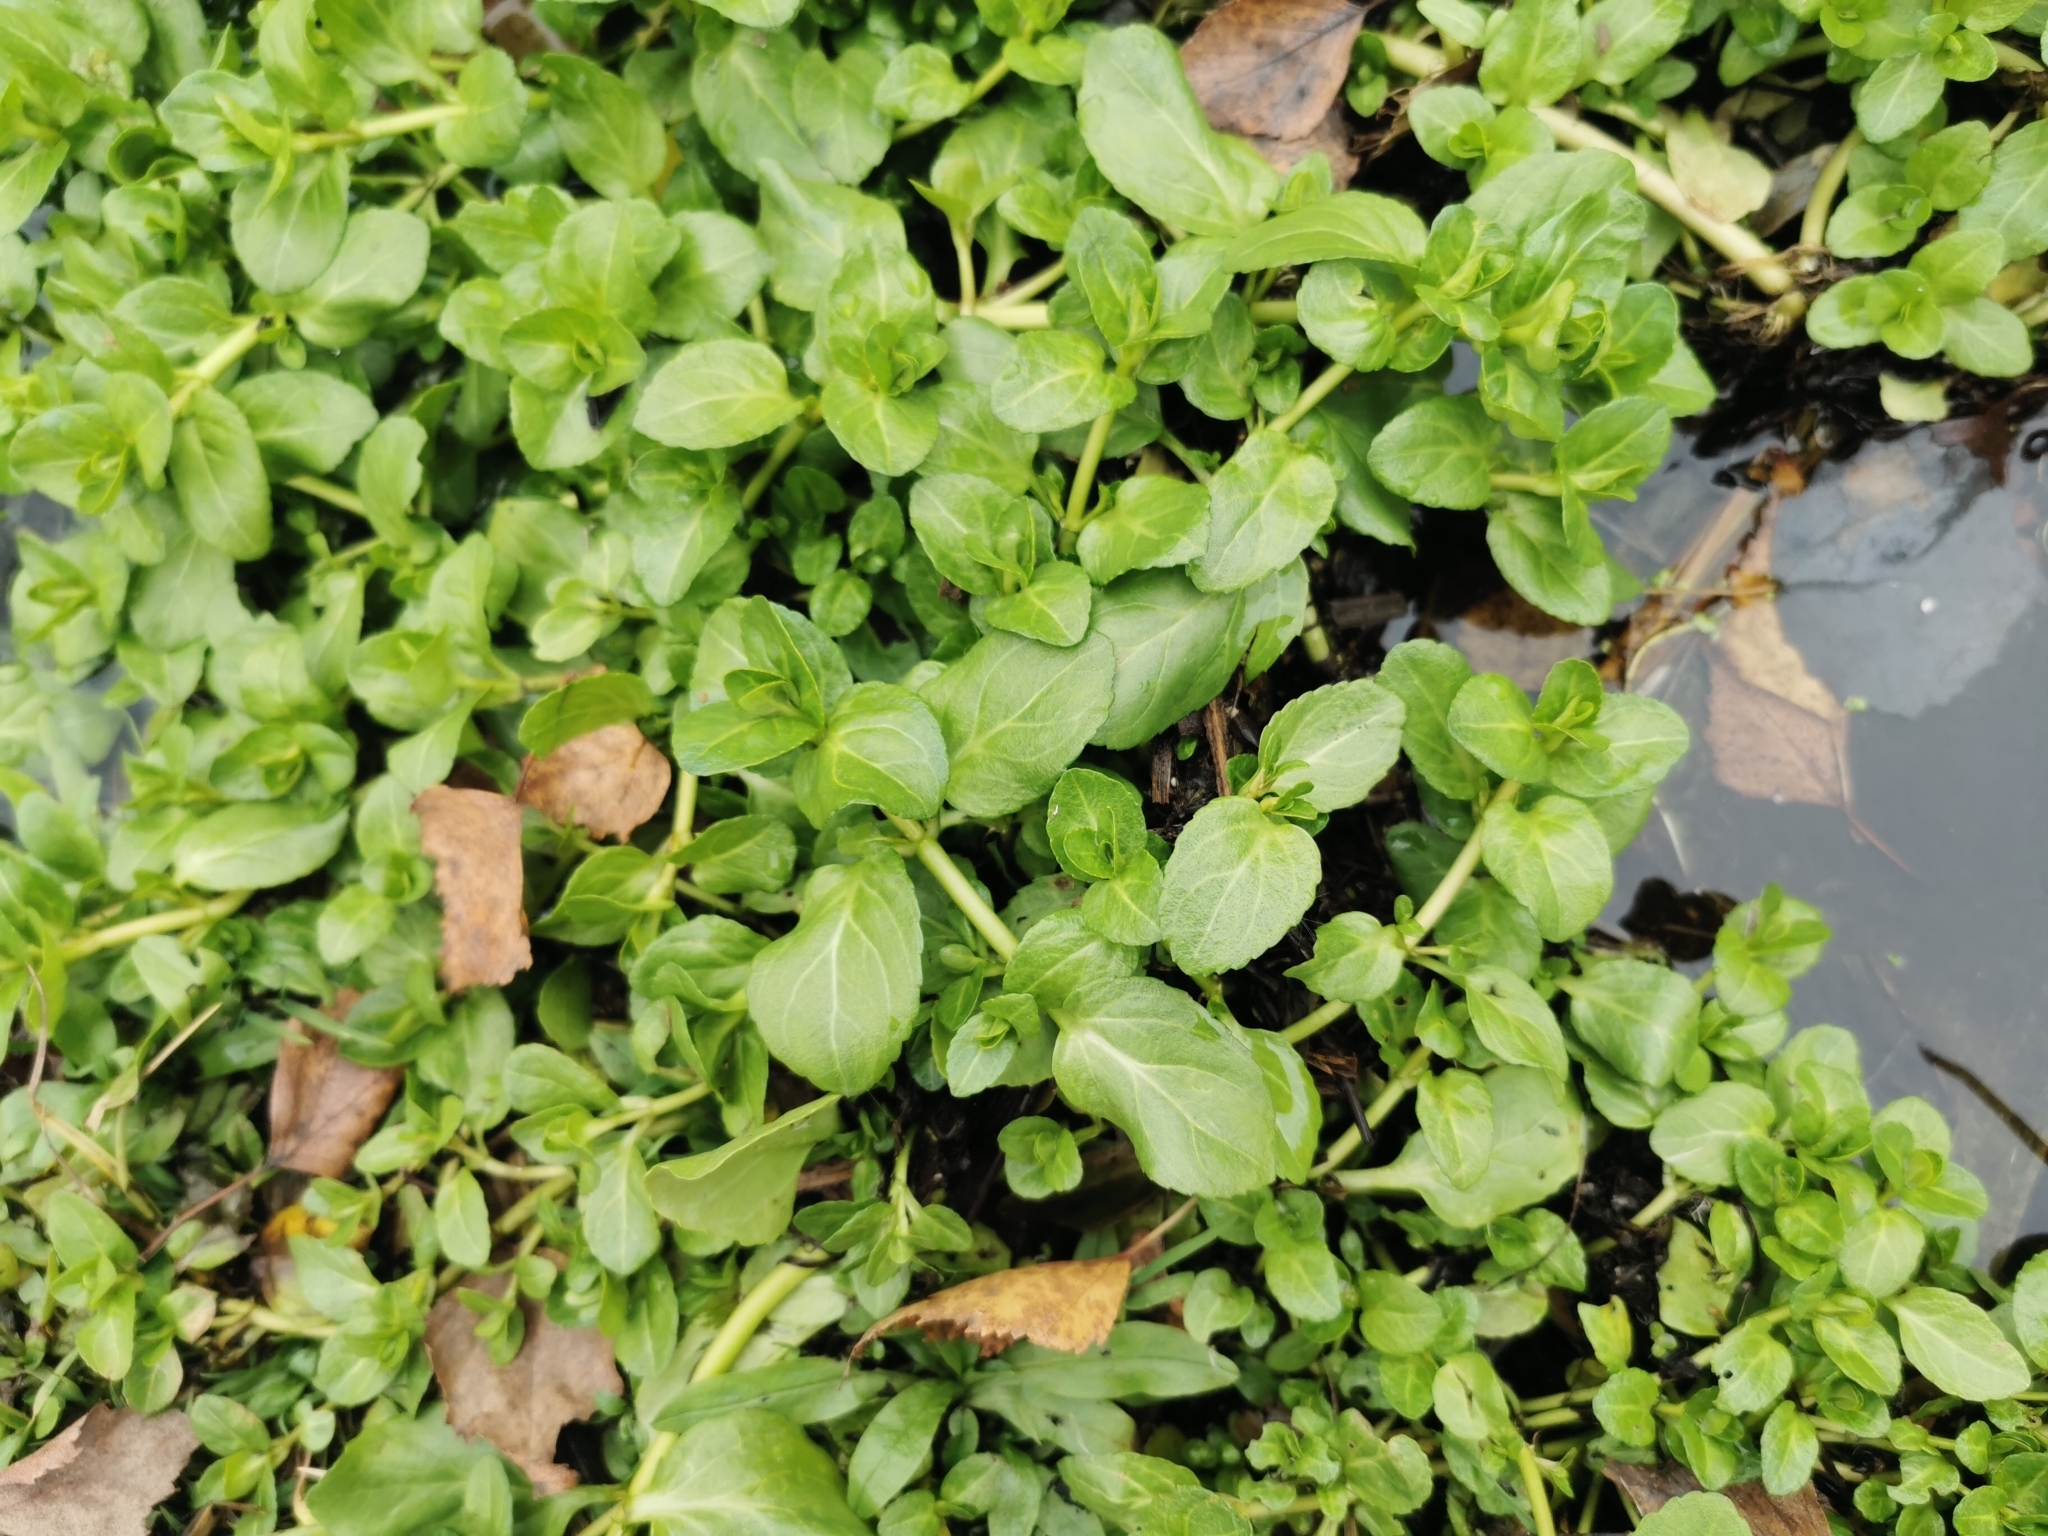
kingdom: Plantae
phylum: Tracheophyta
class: Magnoliopsida
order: Lamiales
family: Plantaginaceae
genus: Veronica
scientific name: Veronica beccabunga
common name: Brooklime
